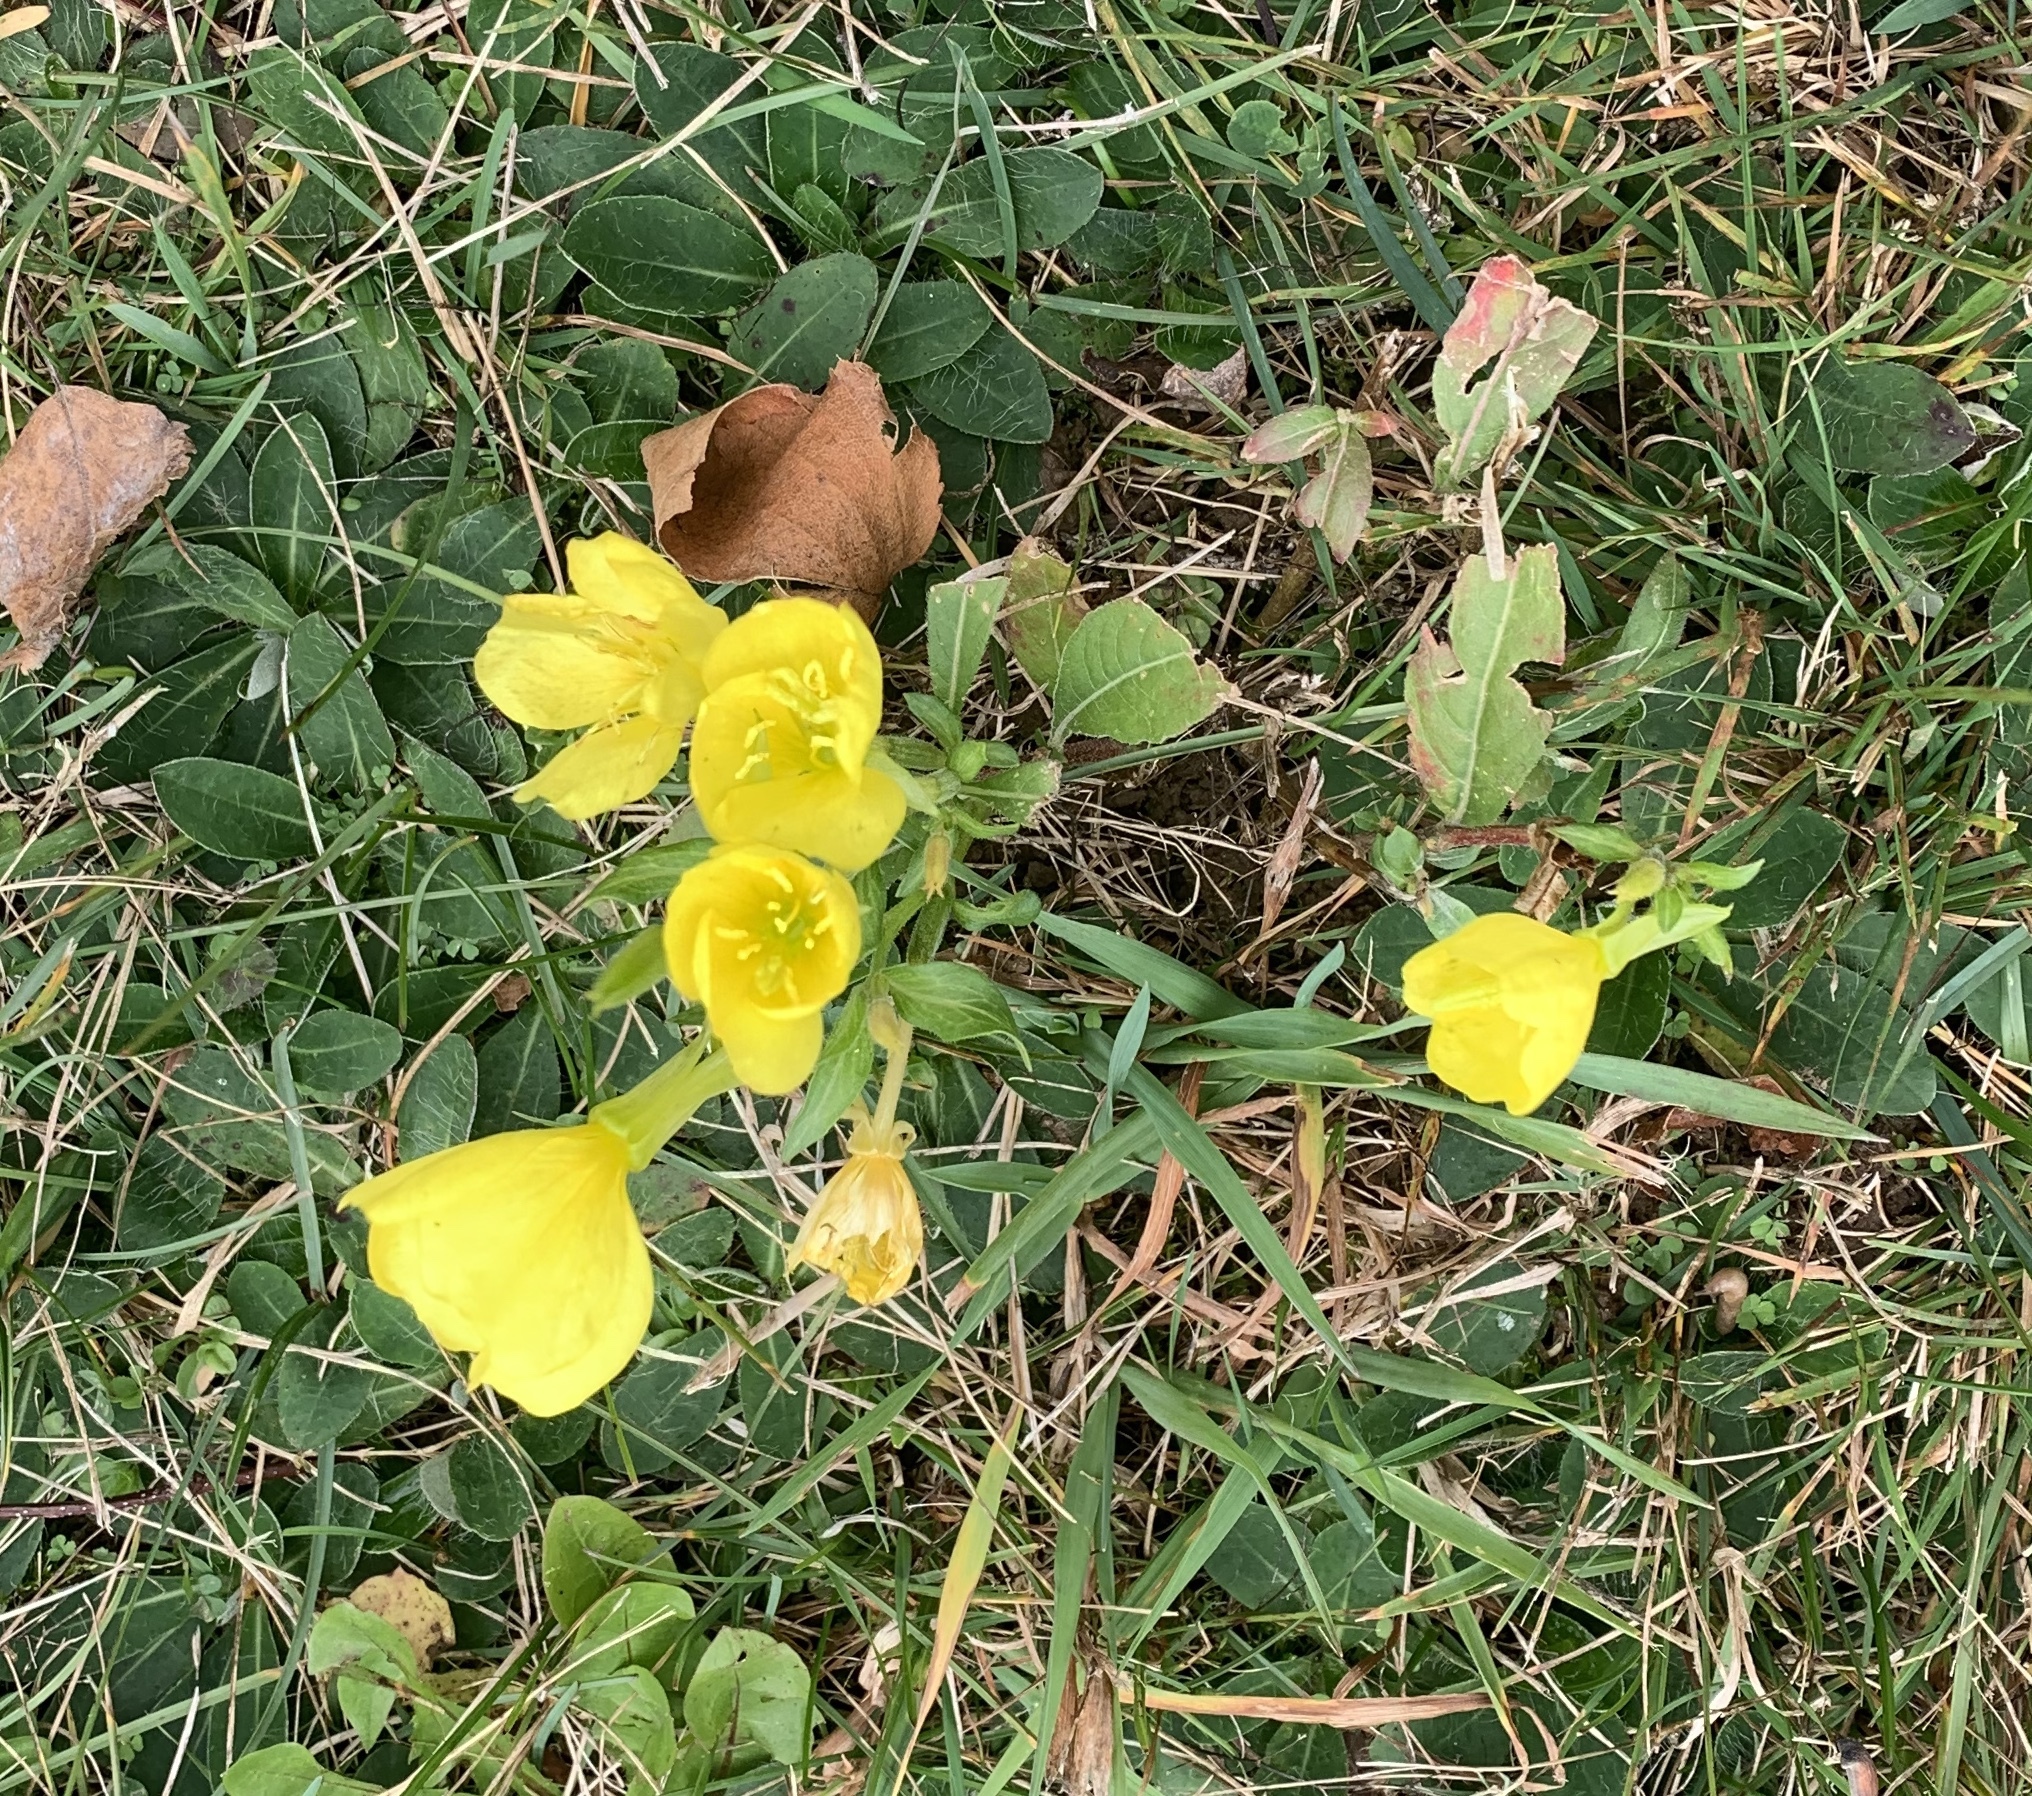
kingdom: Plantae
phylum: Tracheophyta
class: Magnoliopsida
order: Myrtales
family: Onagraceae
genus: Oenothera
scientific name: Oenothera biennis
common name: Common evening-primrose
